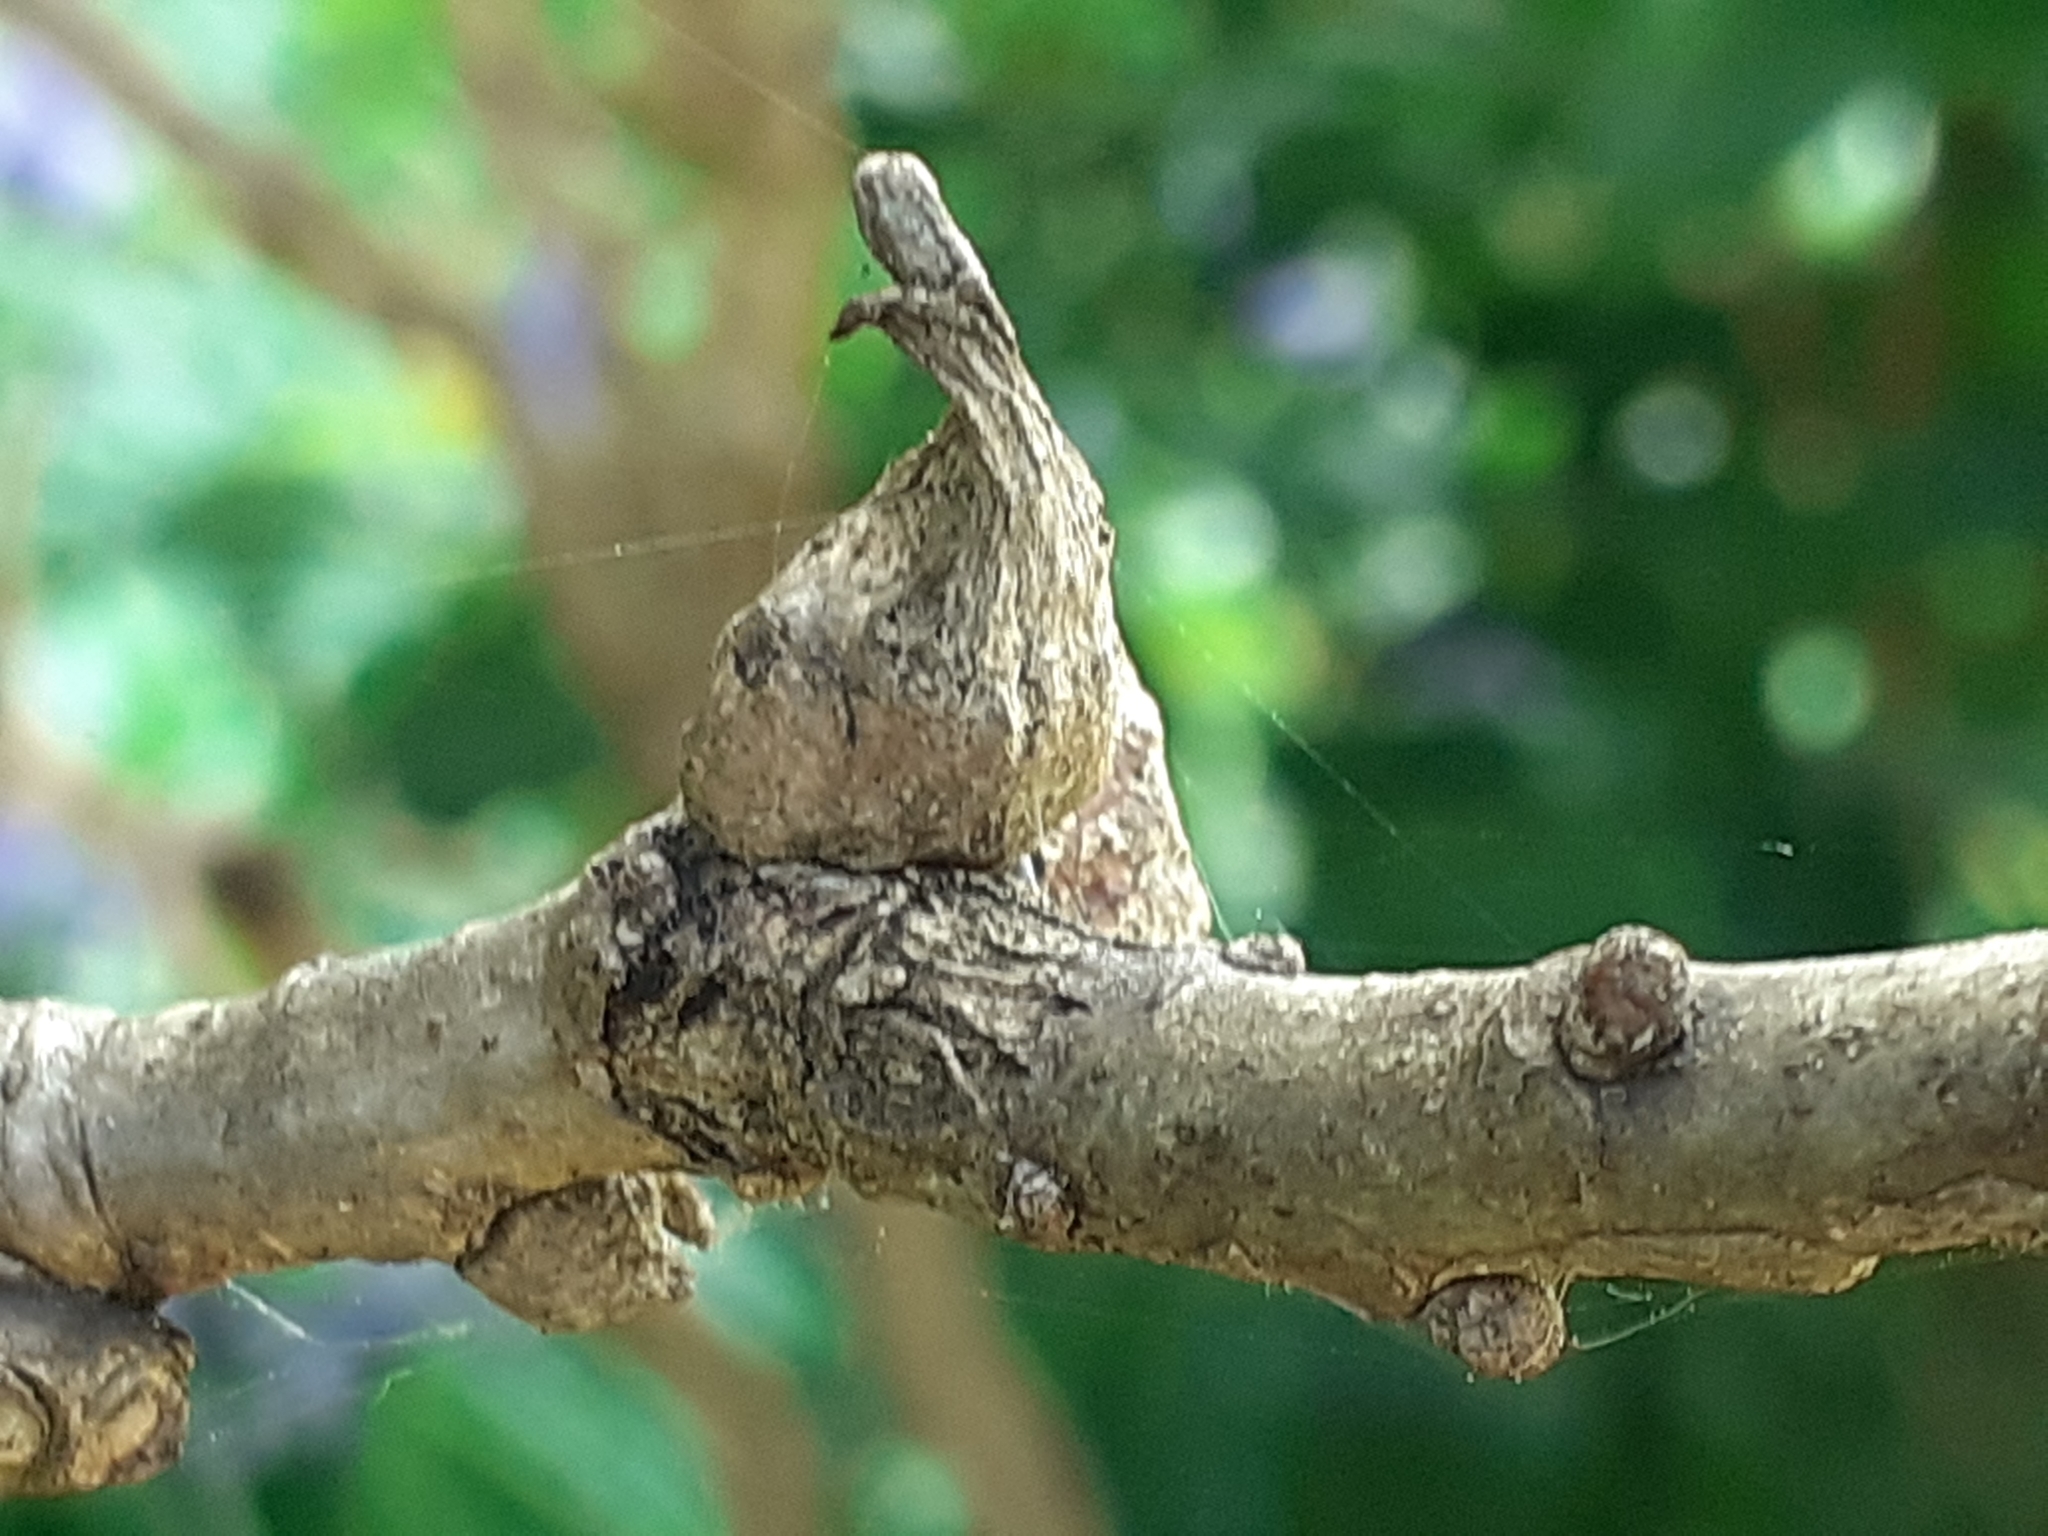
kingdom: Animalia
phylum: Arthropoda
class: Insecta
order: Hymenoptera
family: Cynipidae
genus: Andricus
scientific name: Andricus aries
